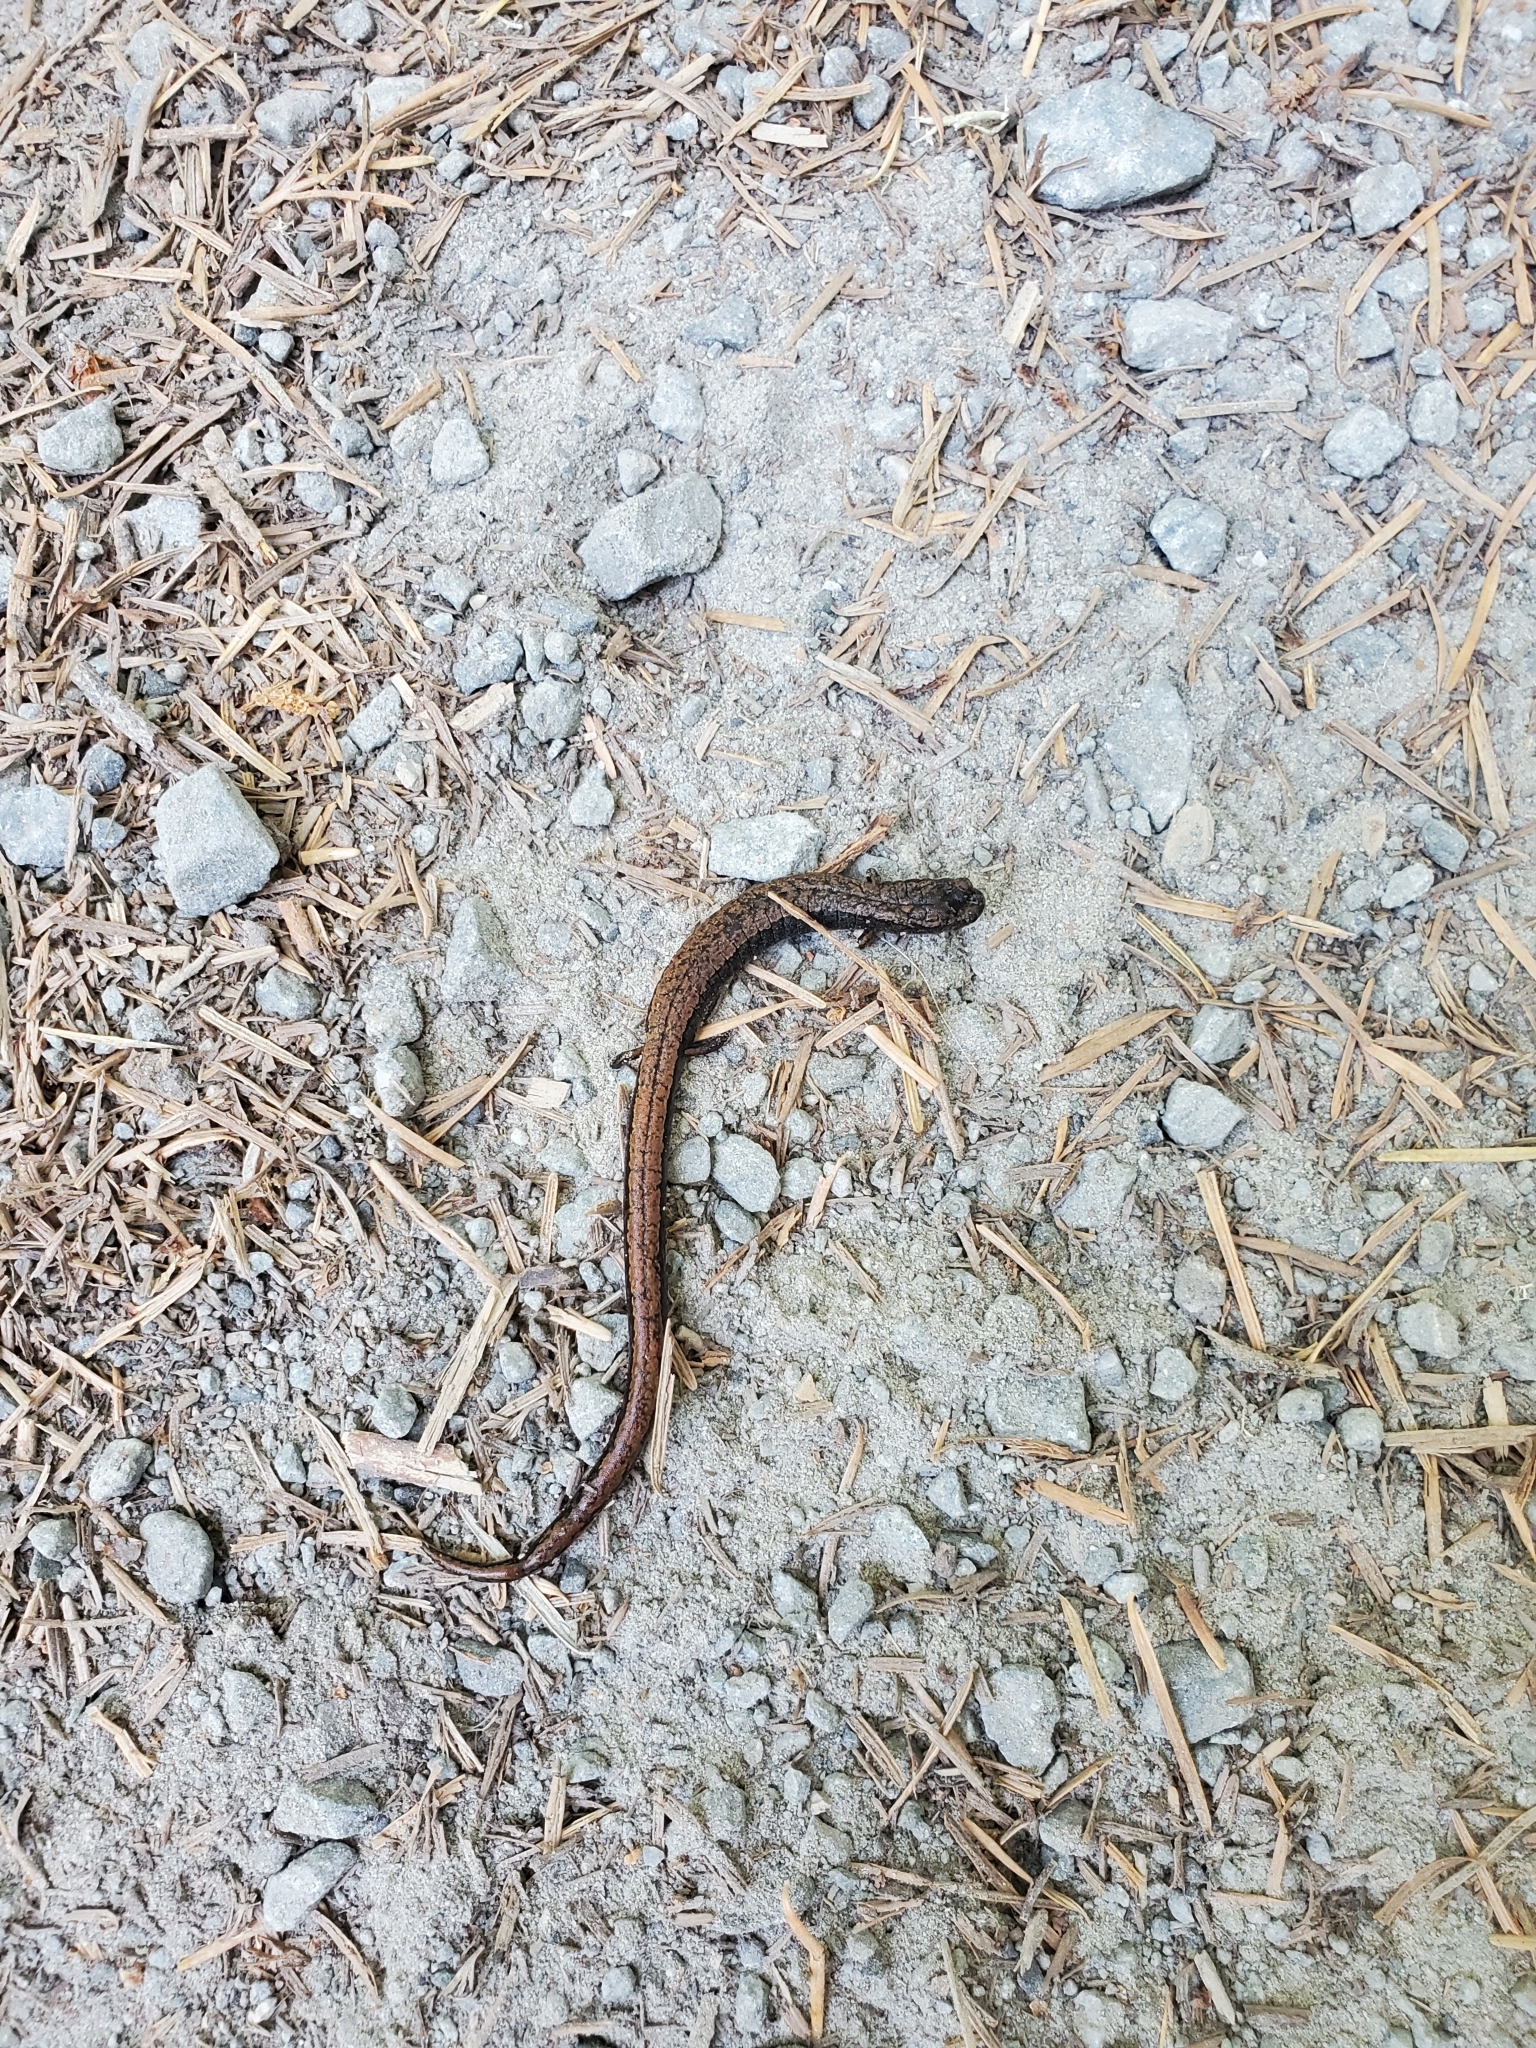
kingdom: Animalia
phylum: Chordata
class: Amphibia
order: Caudata
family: Plethodontidae
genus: Batrachoseps
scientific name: Batrachoseps attenuatus
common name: California slender salamander
